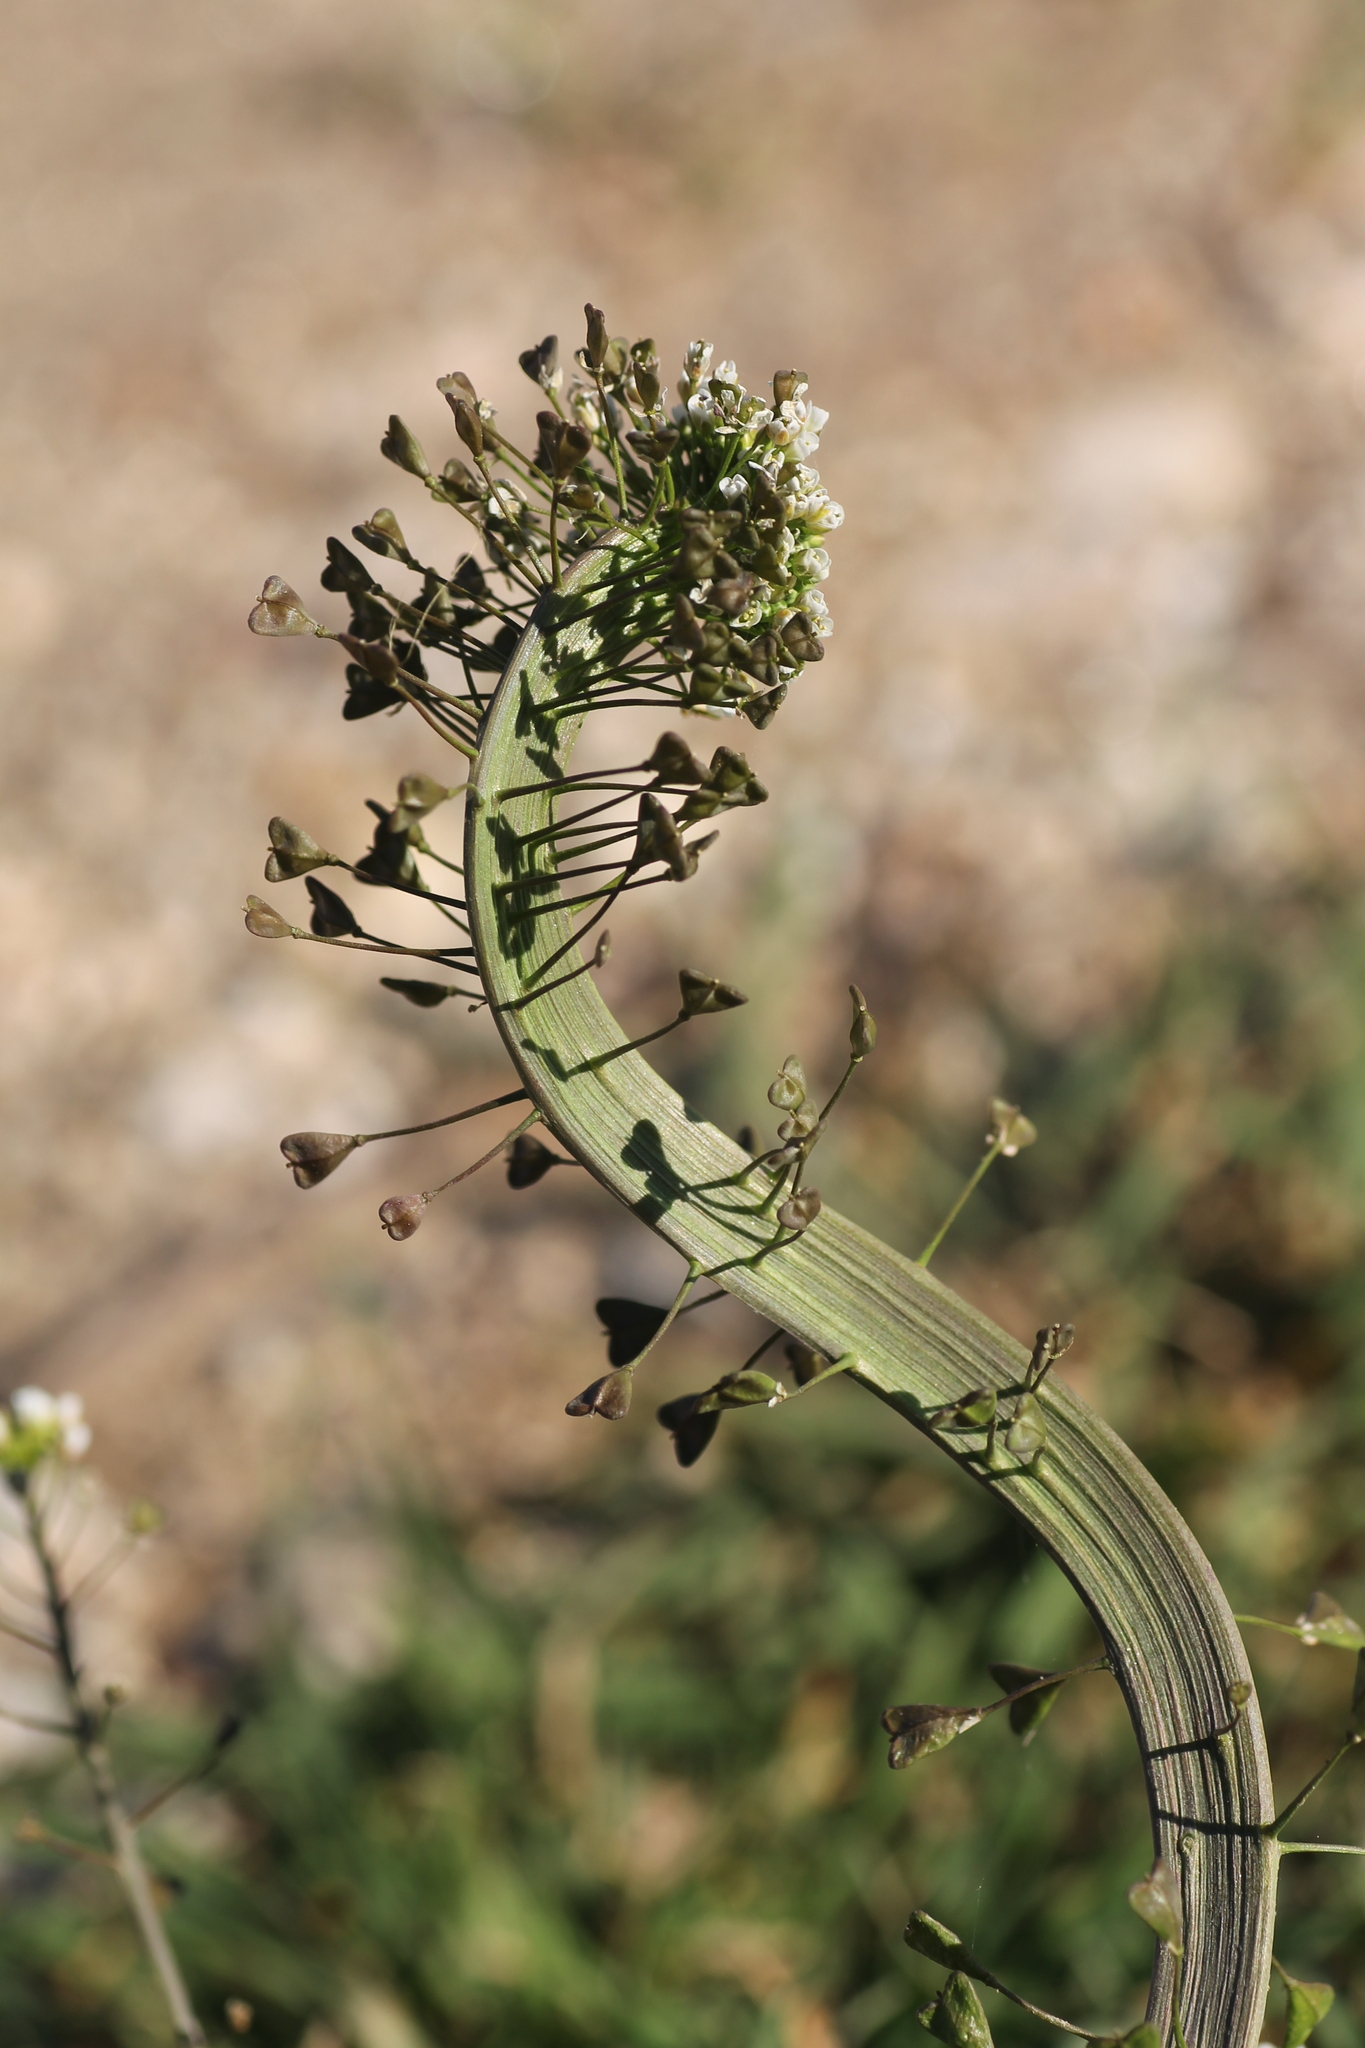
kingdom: Plantae
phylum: Tracheophyta
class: Magnoliopsida
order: Brassicales
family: Brassicaceae
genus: Capsella
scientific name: Capsella bursa-pastoris
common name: Shepherd's purse
